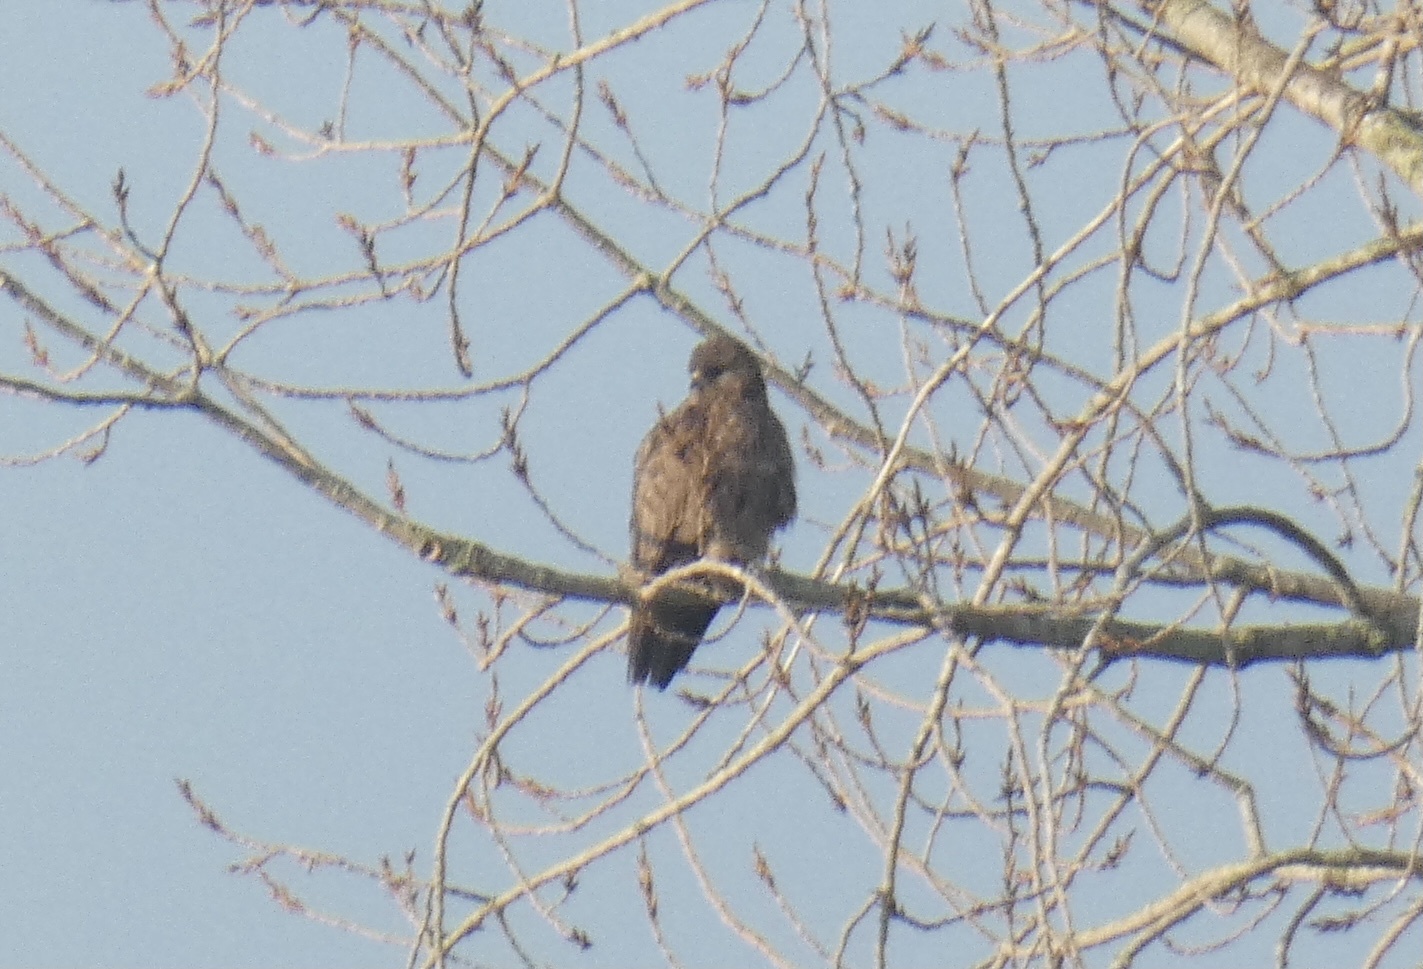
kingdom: Animalia
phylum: Chordata
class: Aves
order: Accipitriformes
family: Accipitridae
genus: Buteo
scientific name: Buteo buteo
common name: Common buzzard
